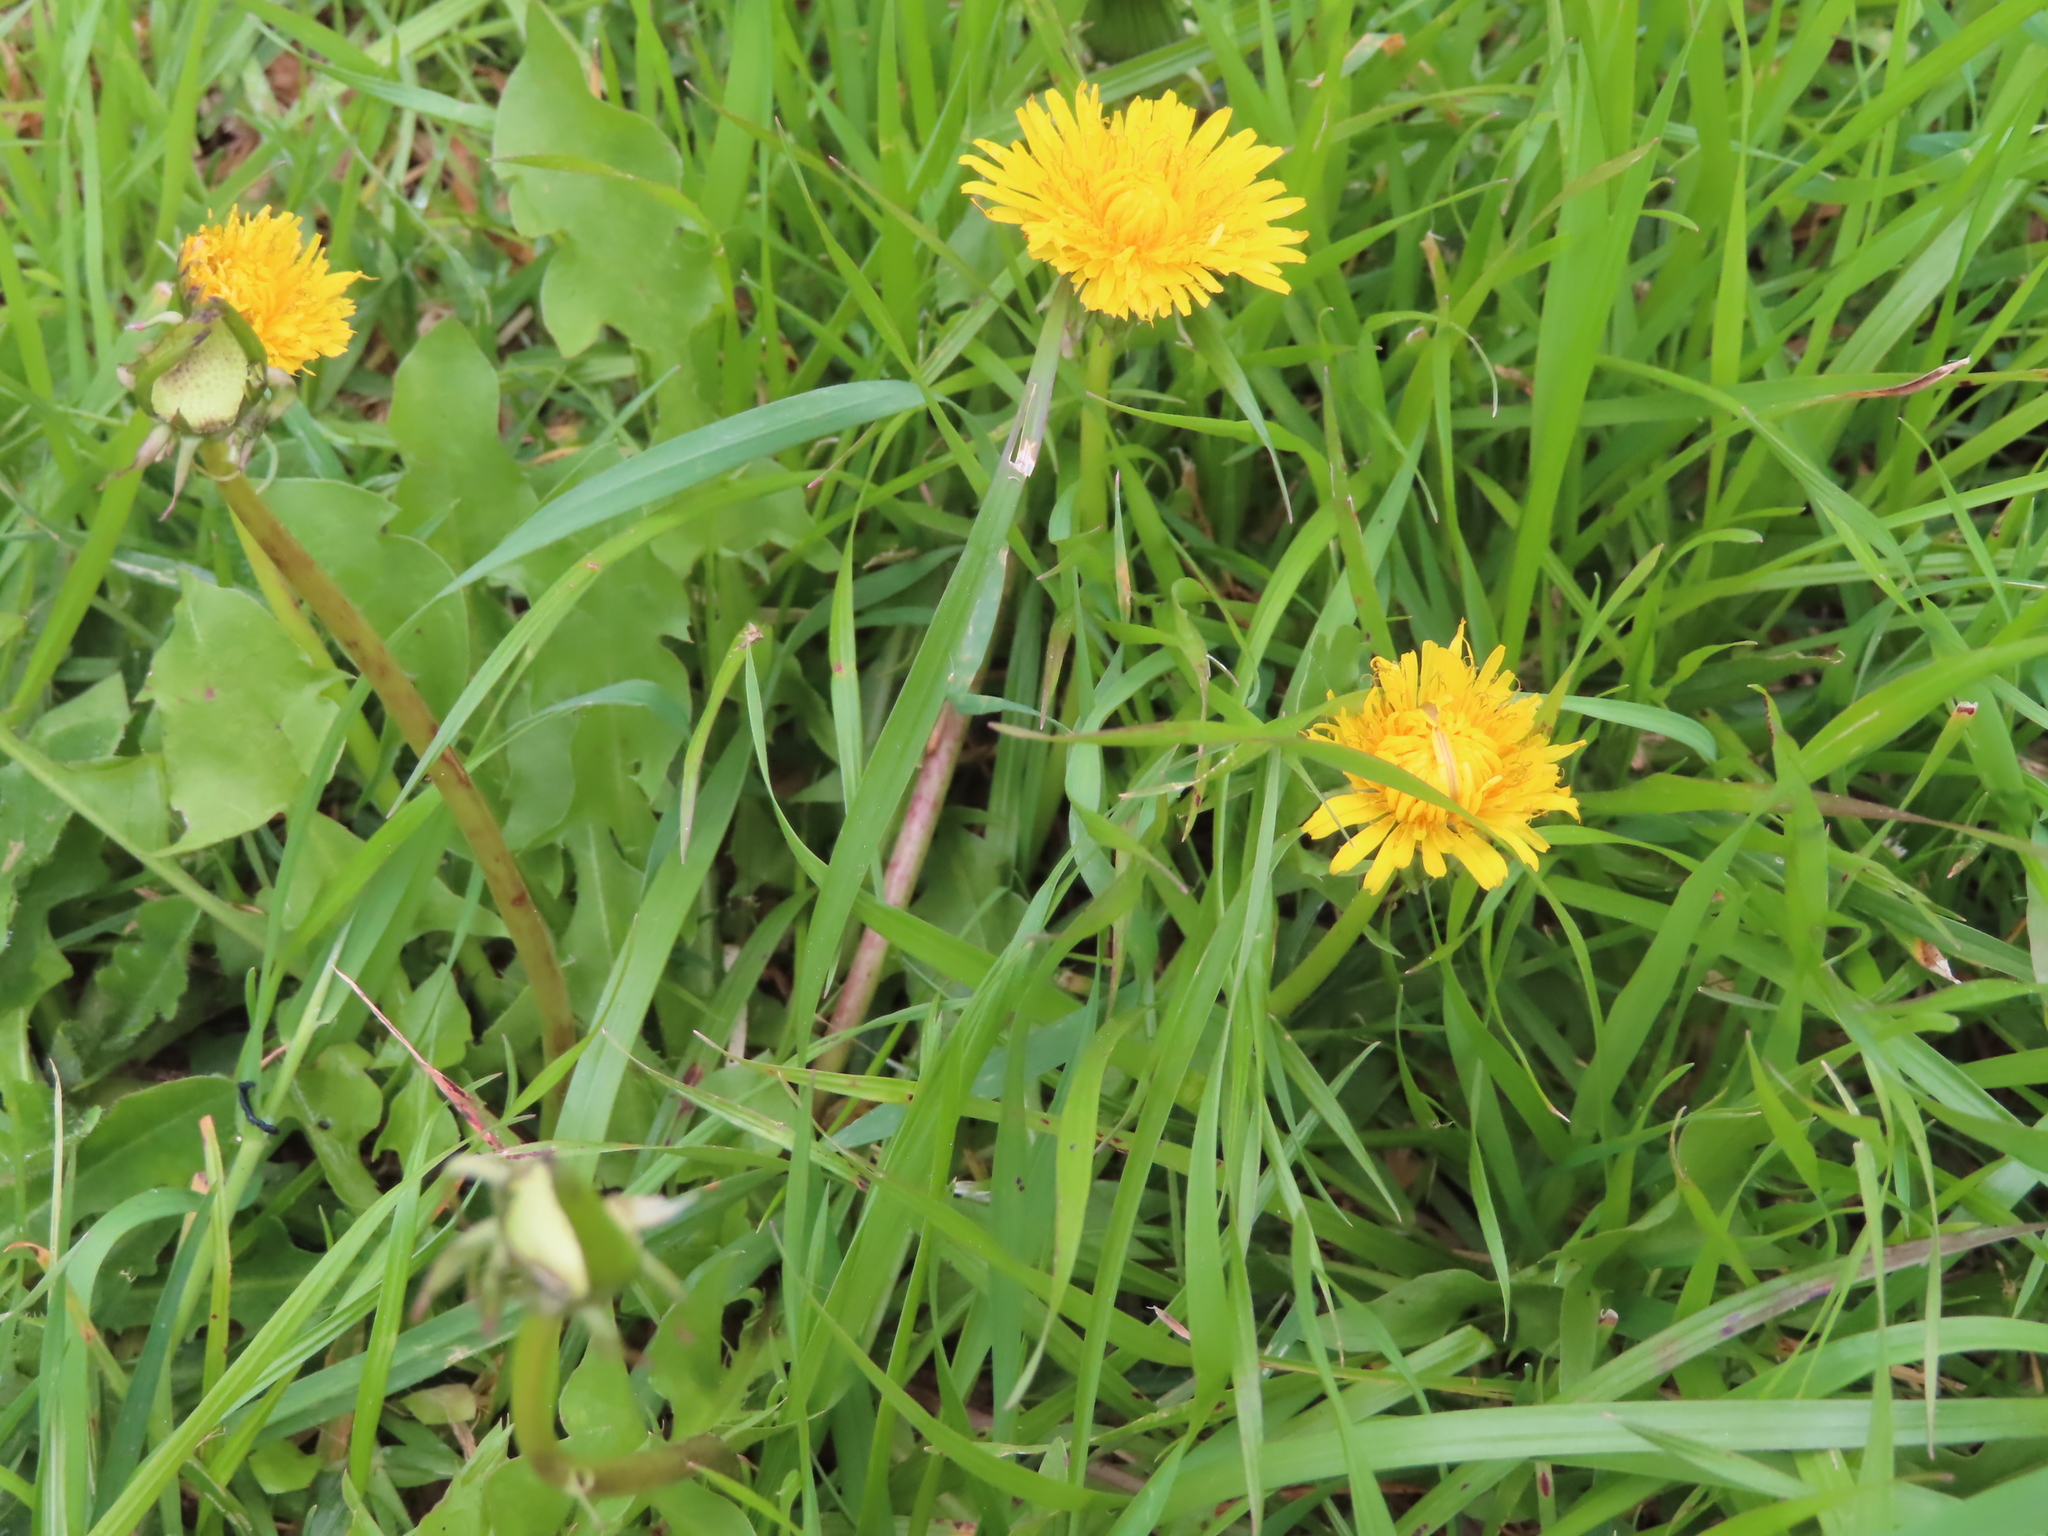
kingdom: Plantae
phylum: Tracheophyta
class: Magnoliopsida
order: Asterales
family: Asteraceae
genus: Taraxacum
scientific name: Taraxacum officinale
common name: Common dandelion
